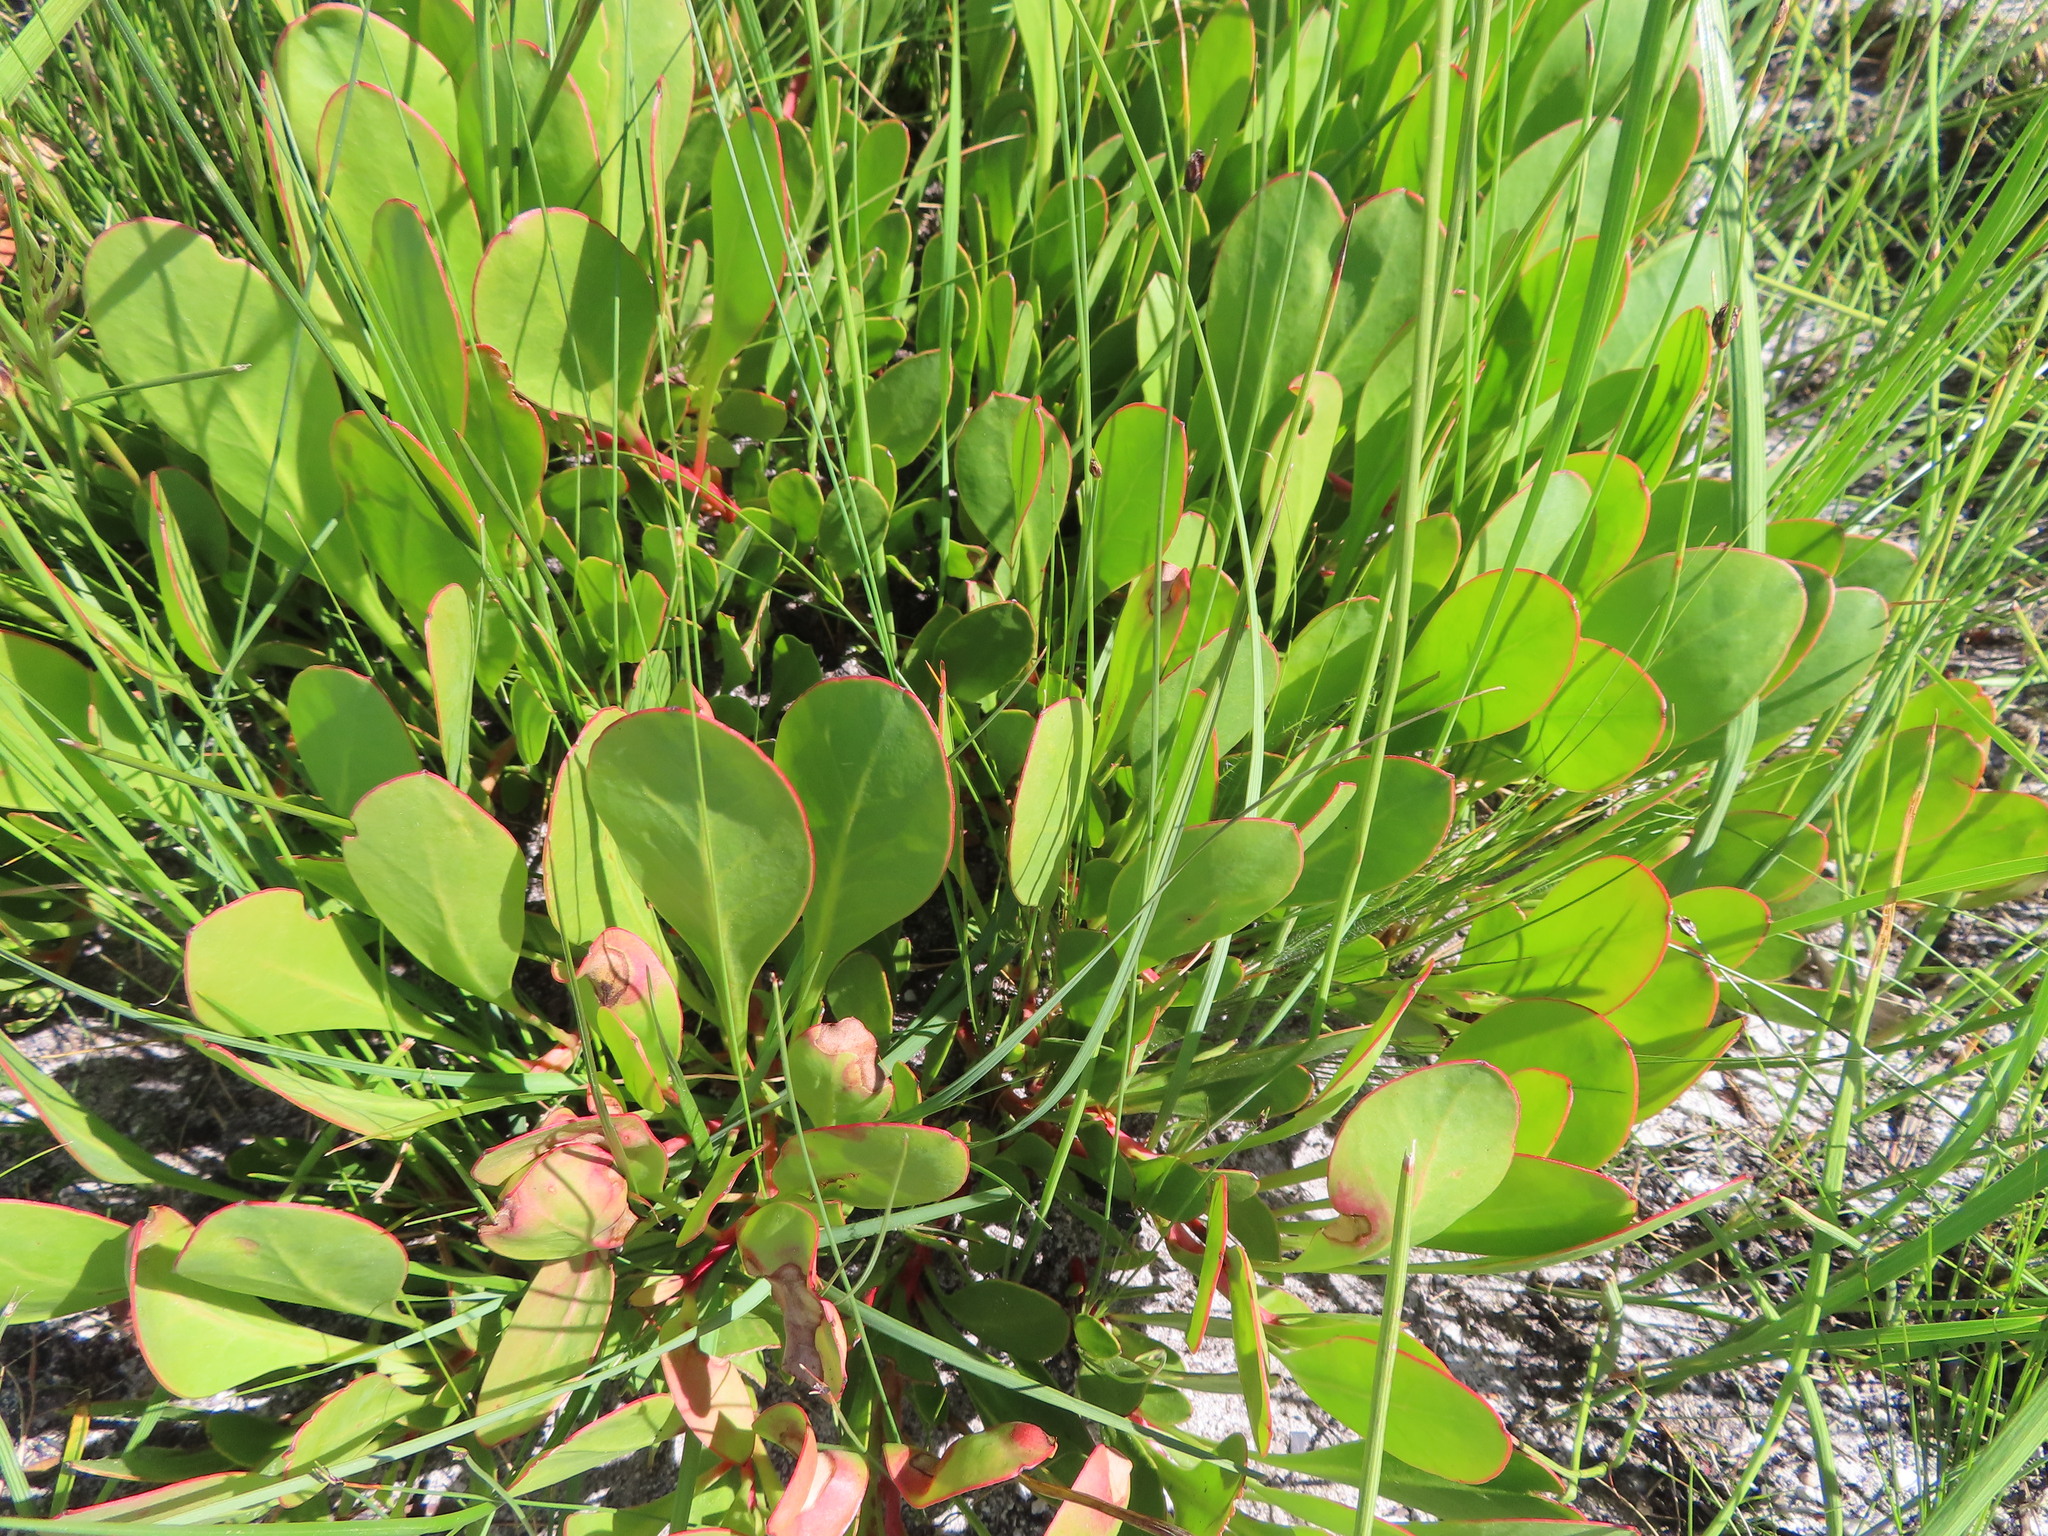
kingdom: Plantae
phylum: Tracheophyta
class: Magnoliopsida
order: Proteales
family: Proteaceae
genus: Protea
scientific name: Protea acaulos
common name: Common ground sugarbush
